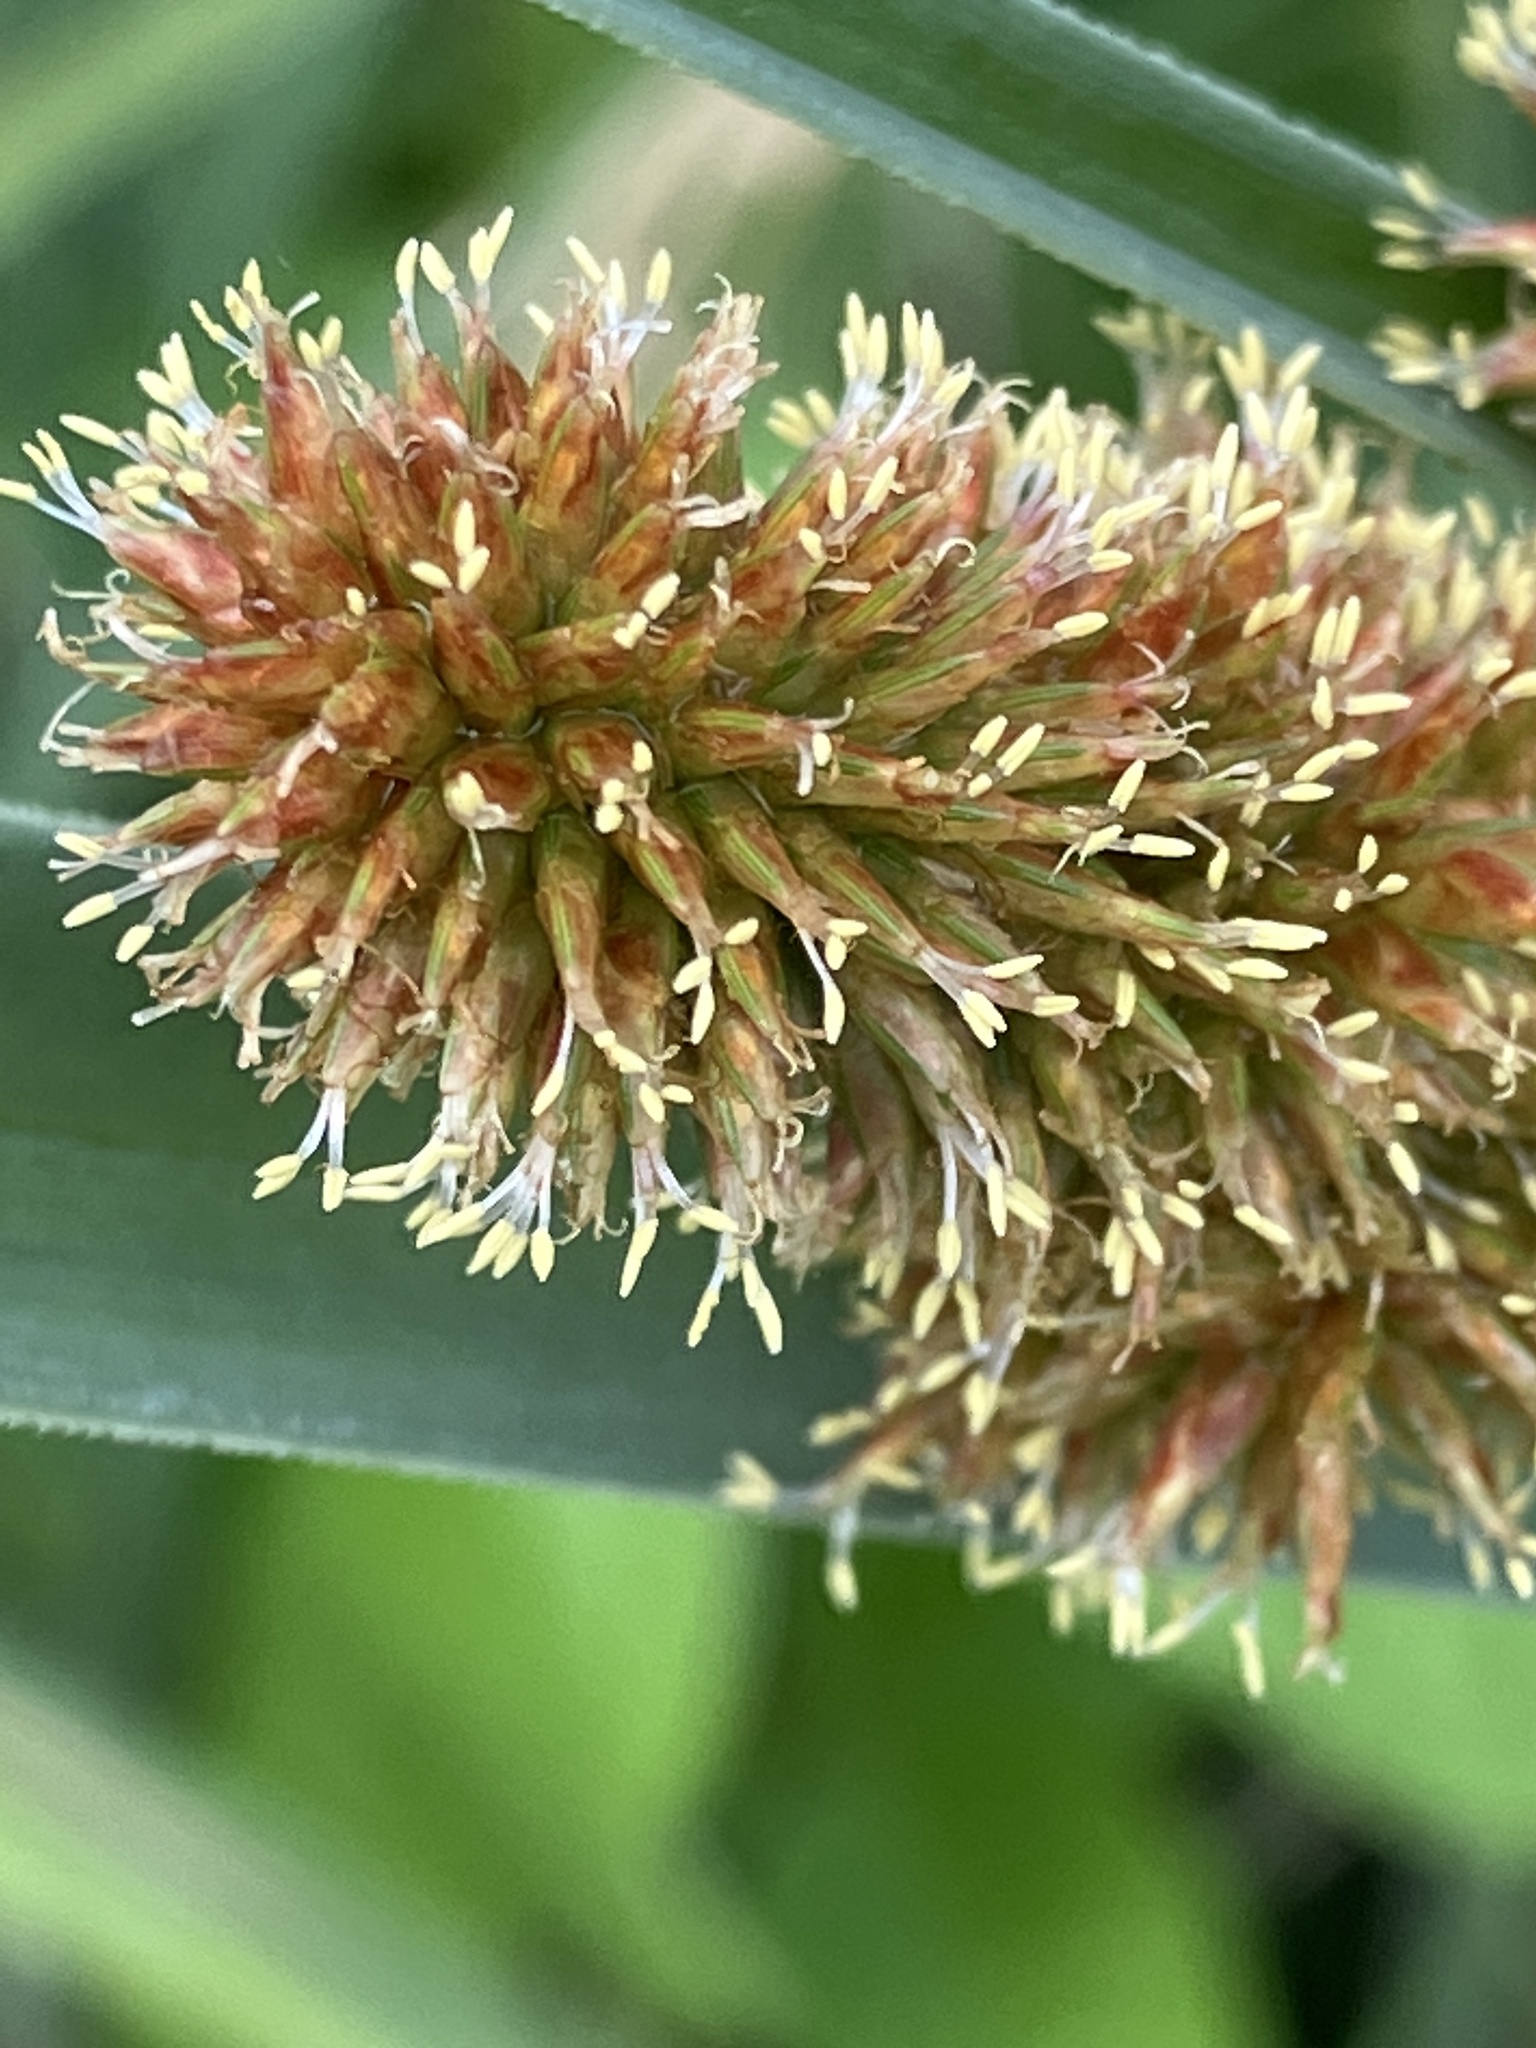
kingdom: Plantae
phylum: Tracheophyta
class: Liliopsida
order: Poales
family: Cyperaceae
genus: Cyperus
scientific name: Cyperus ligularis
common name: Swamp flat sedge
